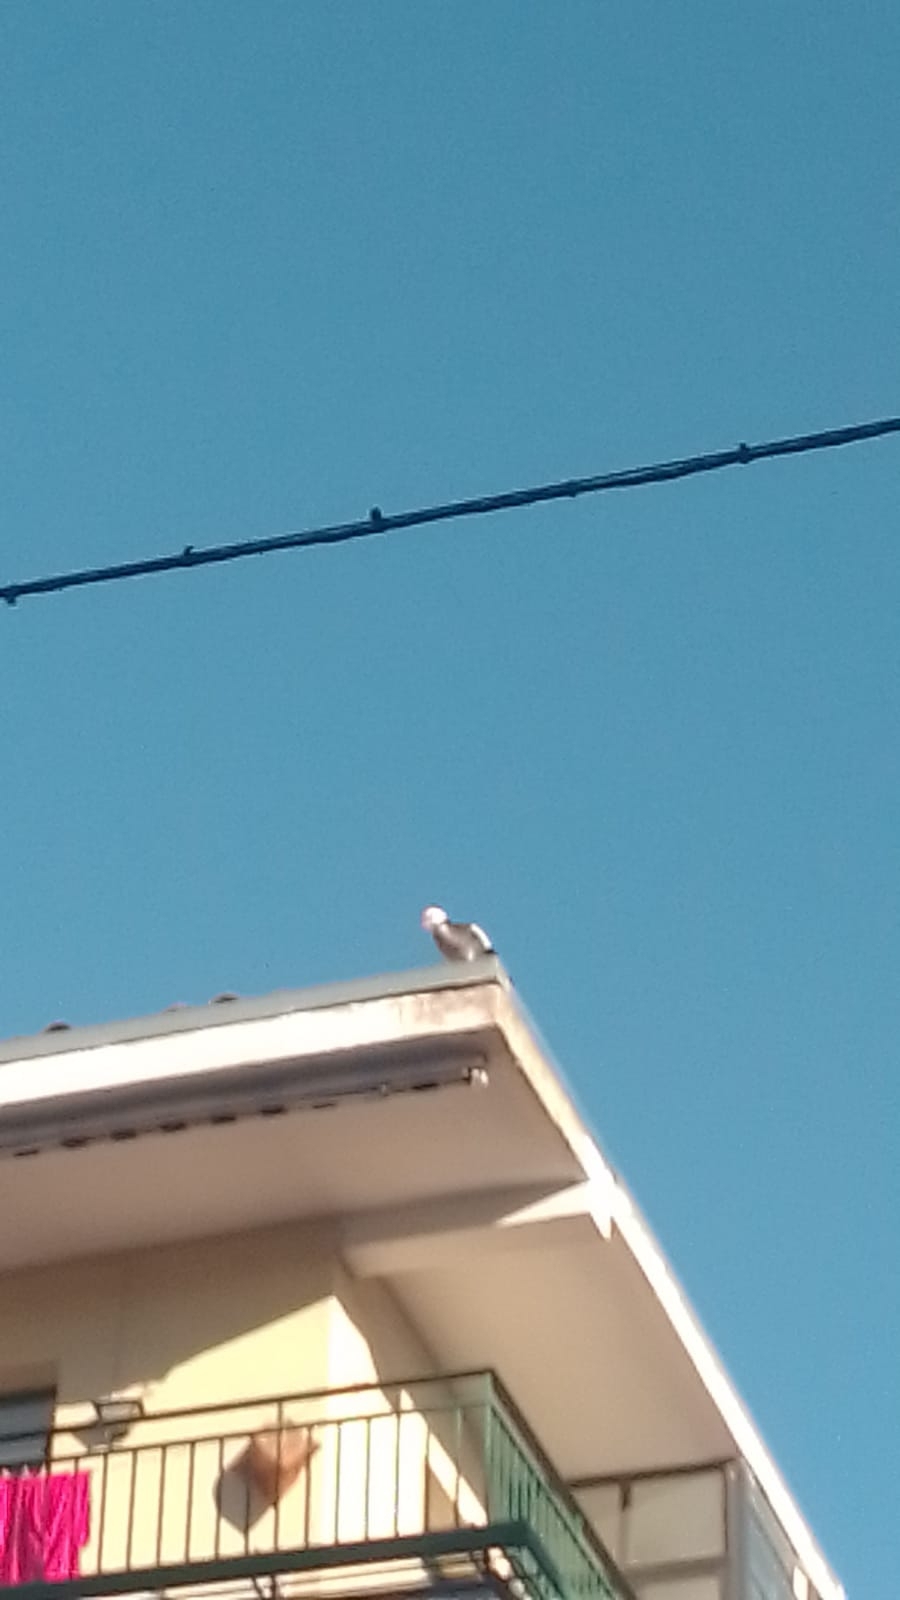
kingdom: Animalia
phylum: Chordata
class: Aves
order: Anseriformes
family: Anatidae
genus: Cairina
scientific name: Cairina moschata
